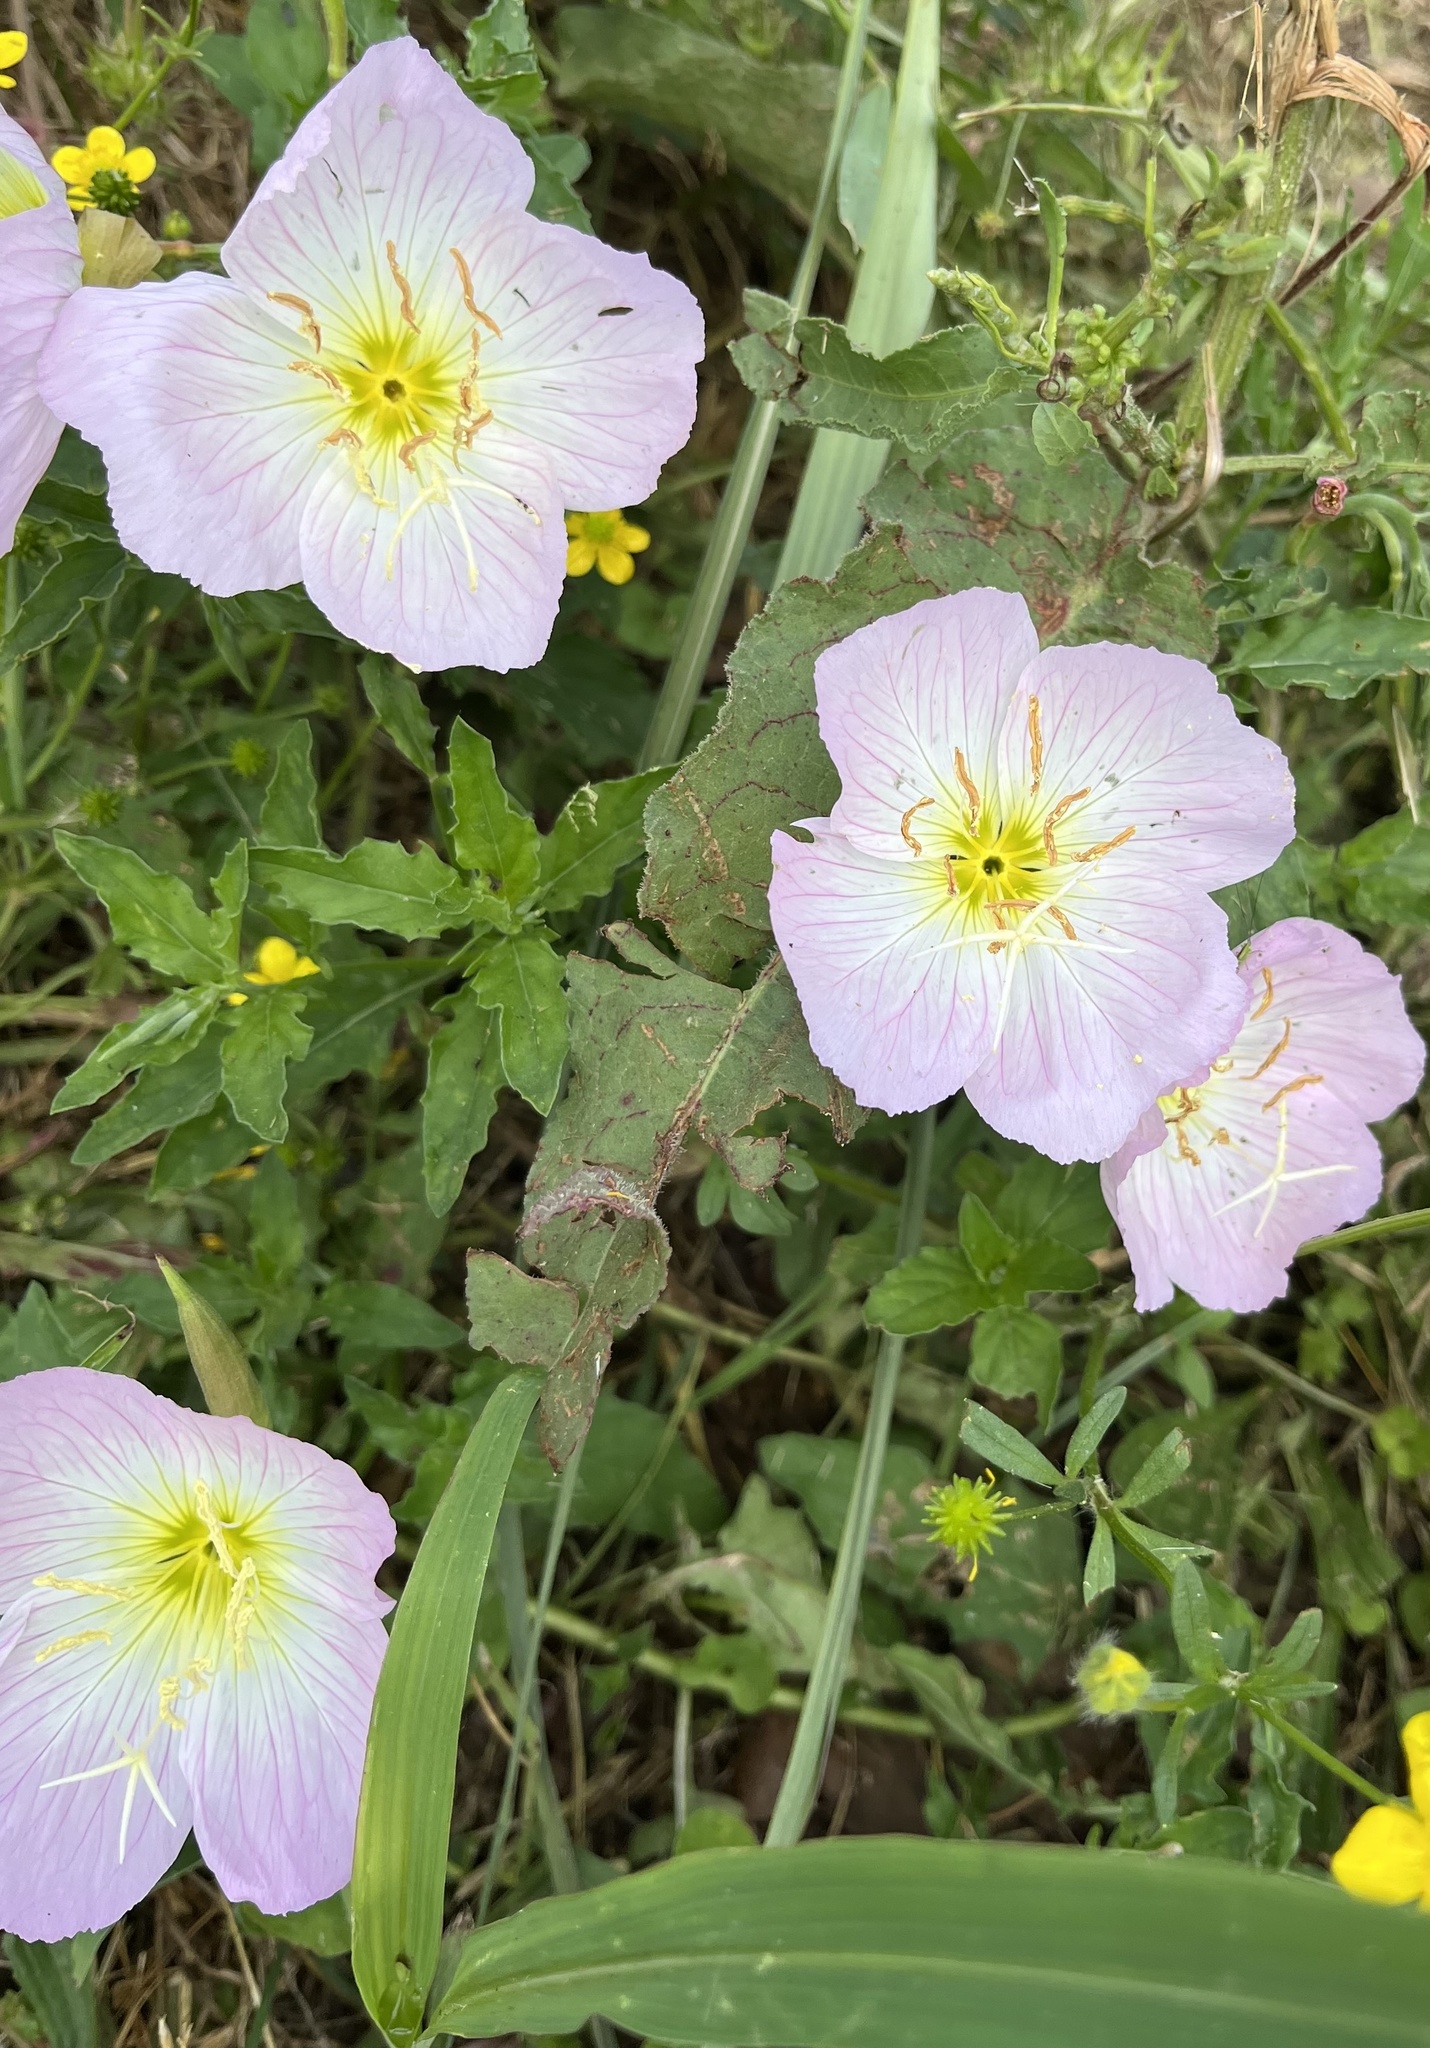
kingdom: Plantae
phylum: Tracheophyta
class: Magnoliopsida
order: Myrtales
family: Onagraceae
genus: Oenothera
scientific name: Oenothera speciosa
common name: White evening-primrose
